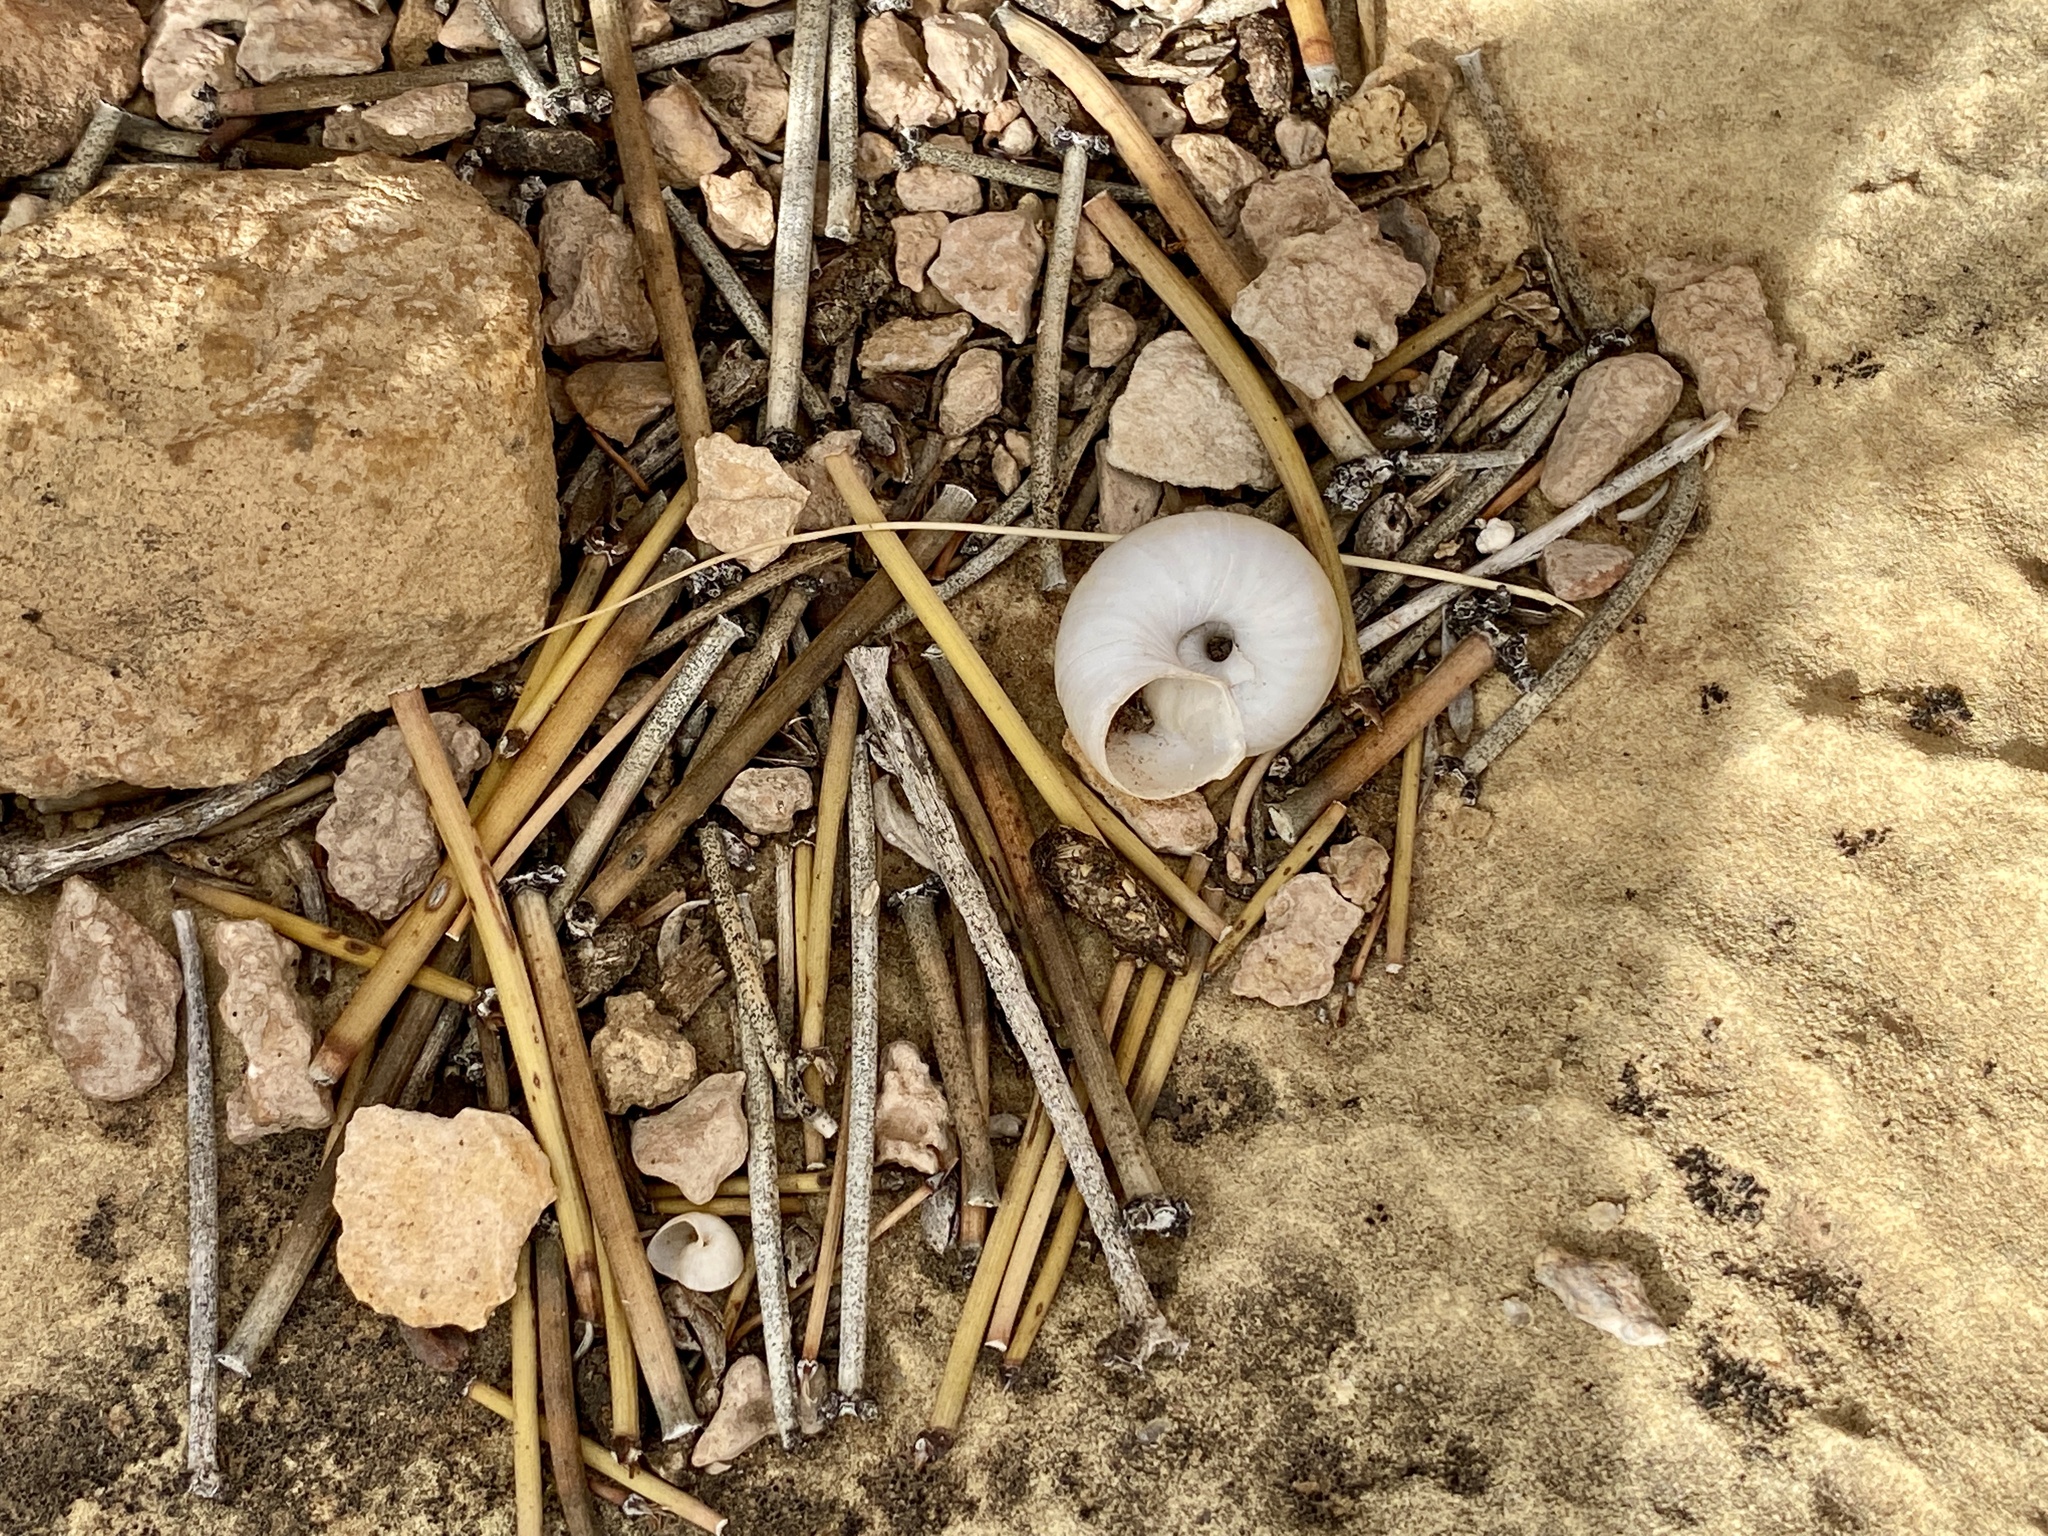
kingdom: Animalia
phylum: Mollusca
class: Gastropoda
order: Stylommatophora
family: Oreohelicidae
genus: Oreohelix
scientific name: Oreohelix houghi
